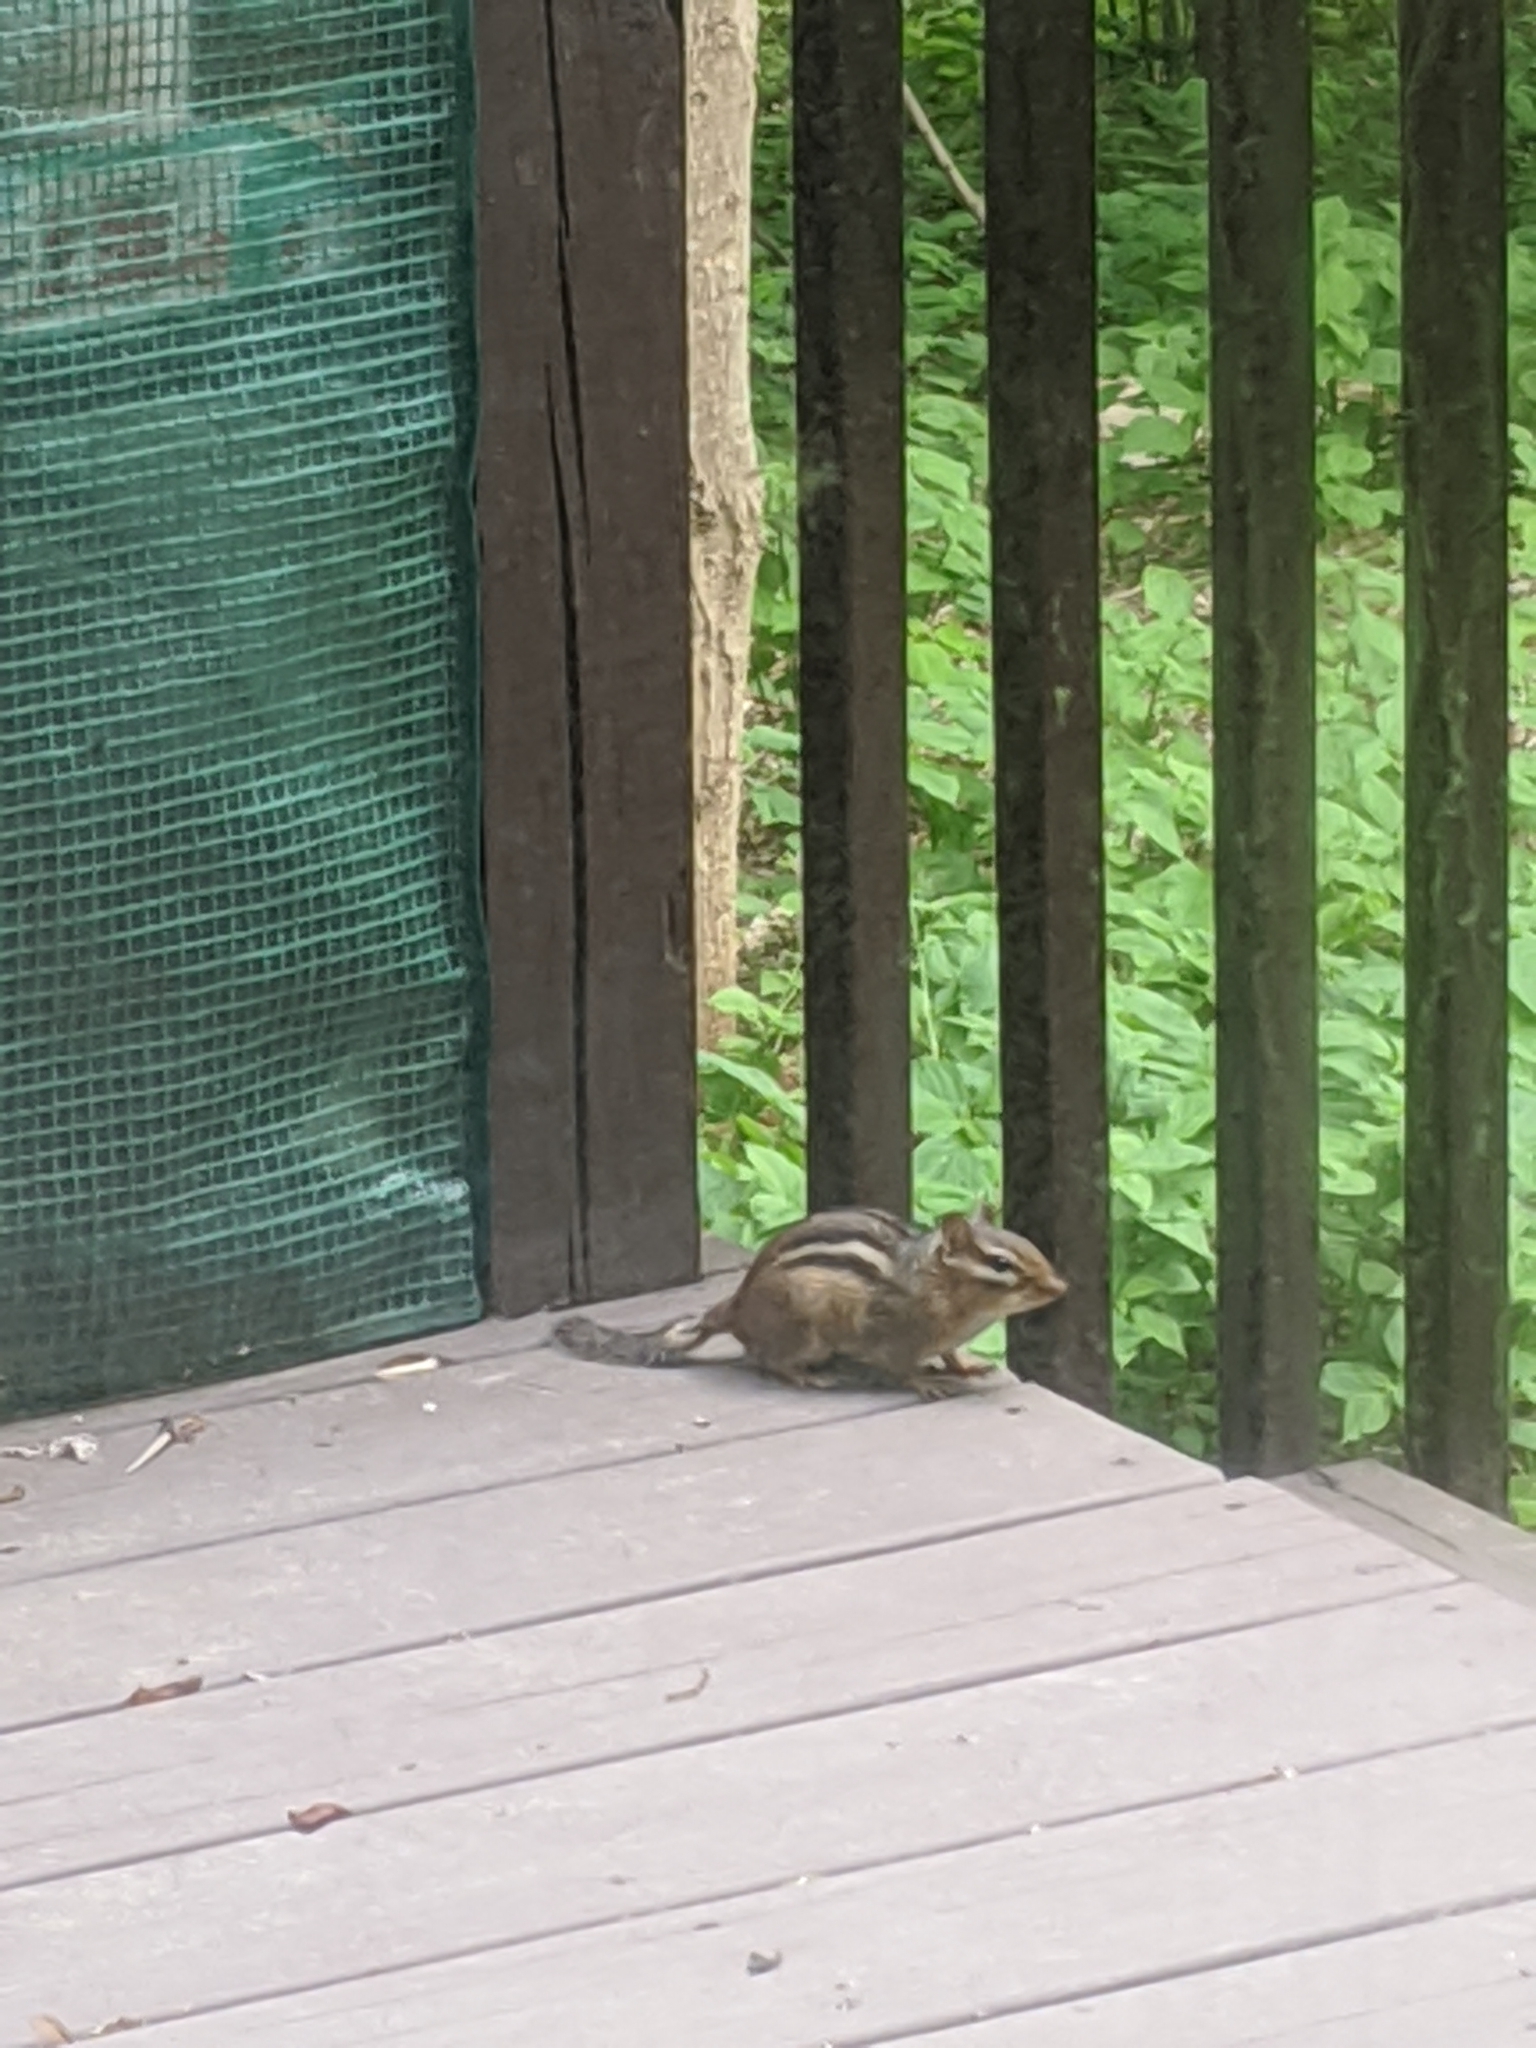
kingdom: Animalia
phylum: Chordata
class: Mammalia
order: Rodentia
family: Sciuridae
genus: Tamias
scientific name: Tamias striatus
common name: Eastern chipmunk
